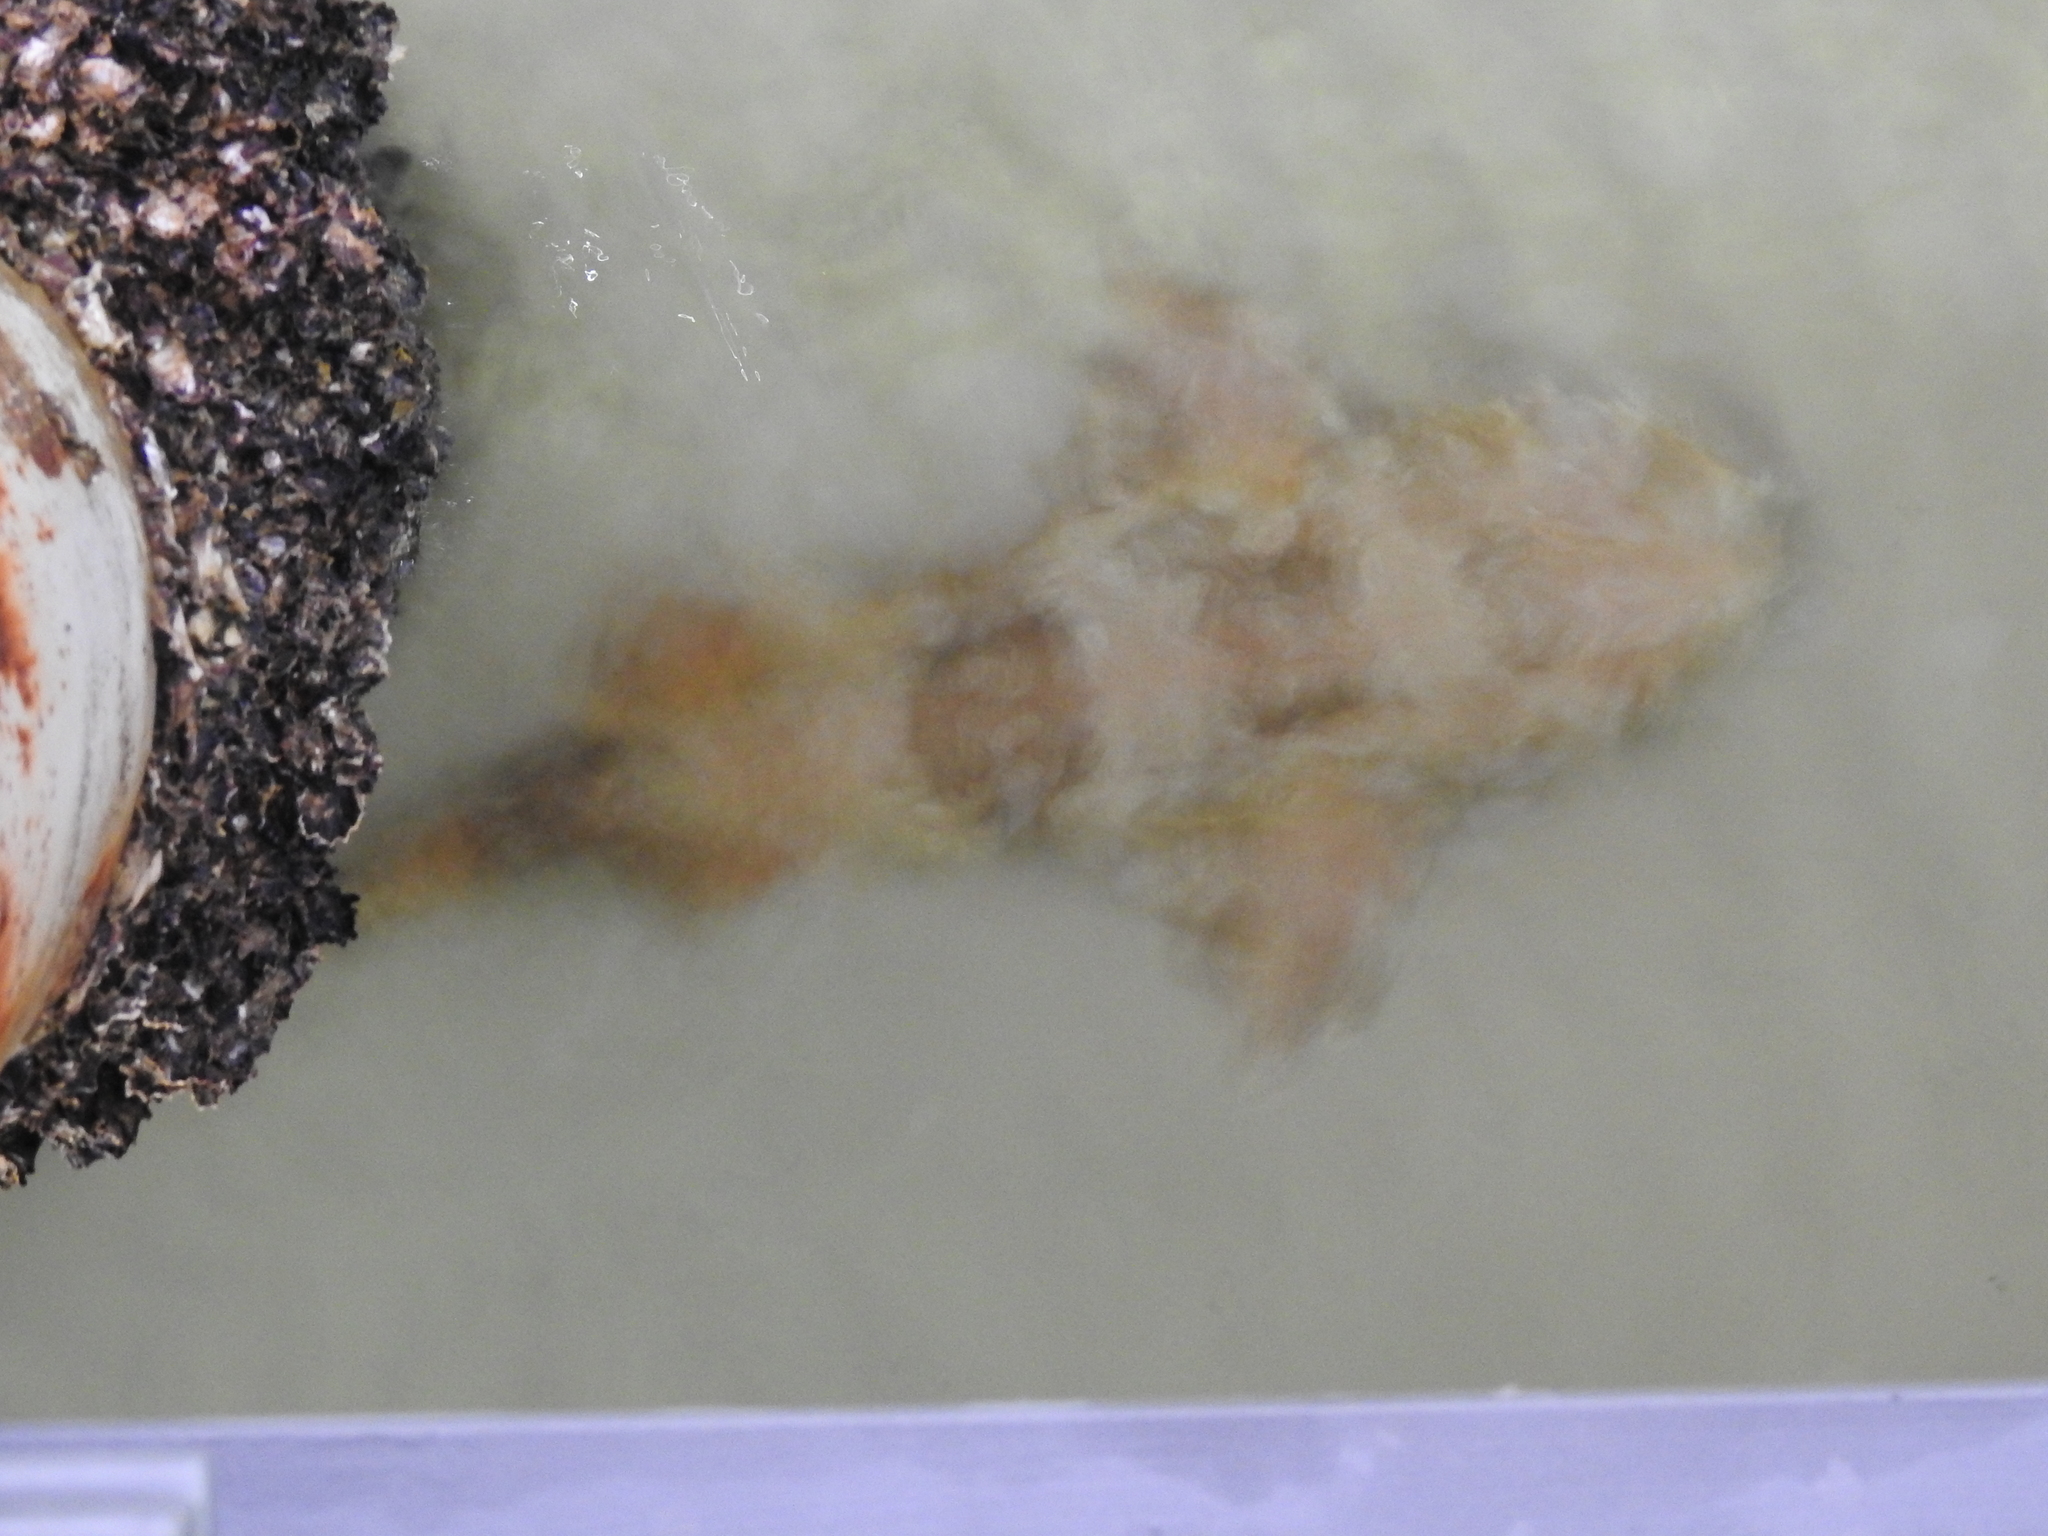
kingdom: Animalia
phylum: Chordata
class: Elasmobranchii
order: Orectolobiformes
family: Orectolobidae
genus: Orectolobus
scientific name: Orectolobus maculatus
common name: Spotted wobbegong
